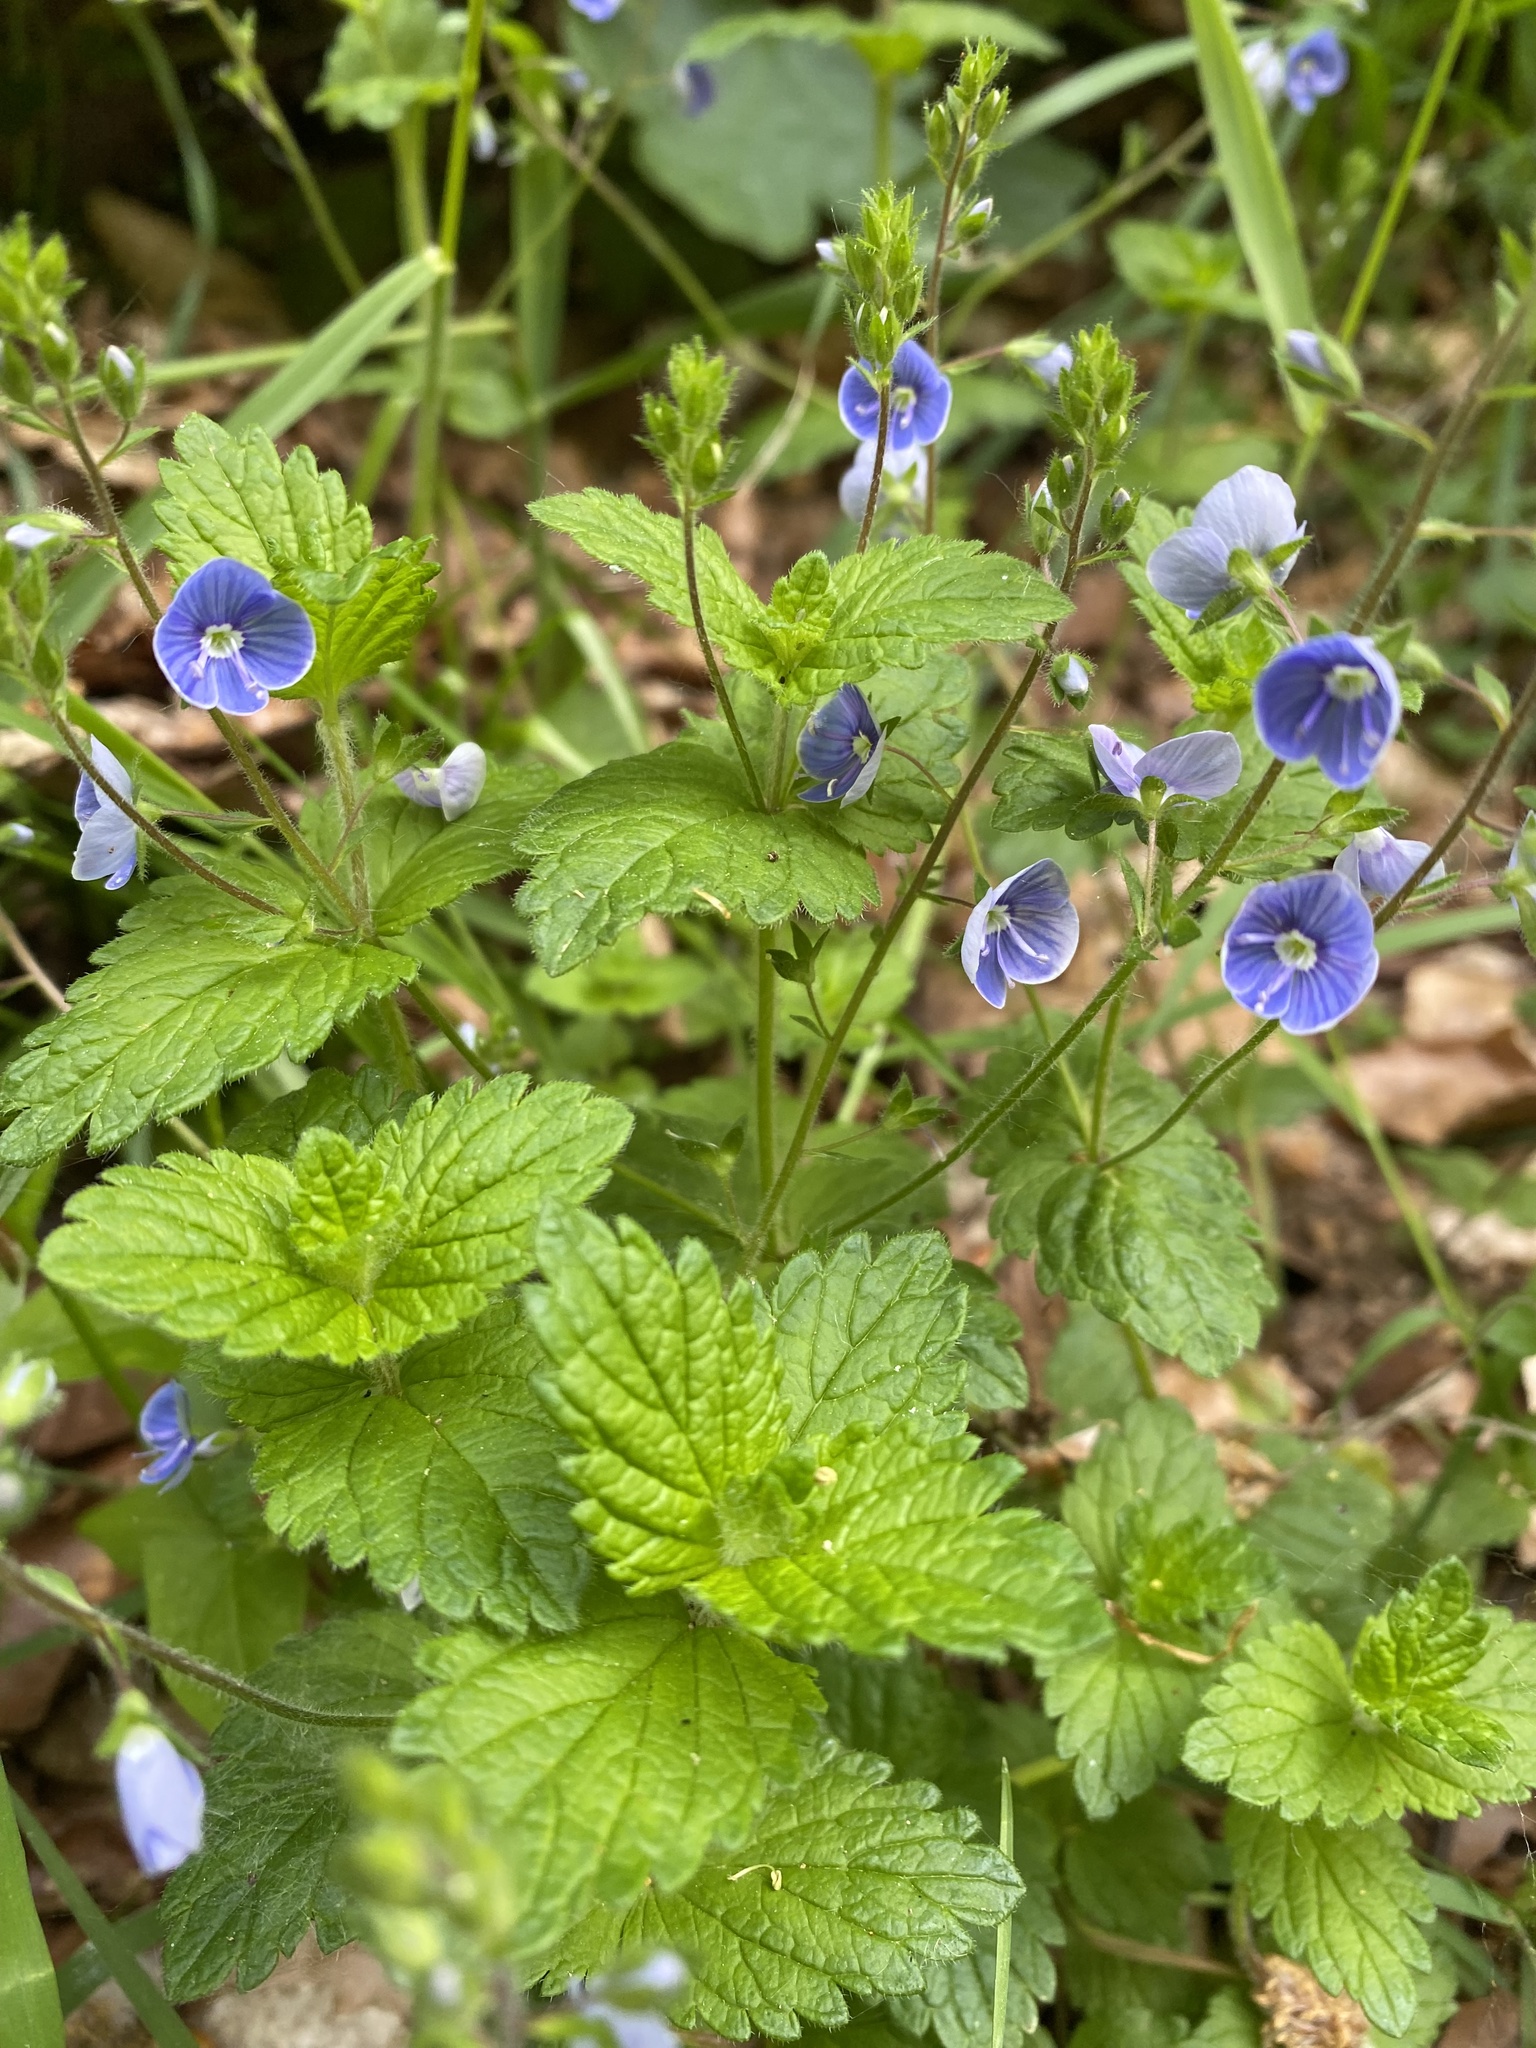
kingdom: Plantae
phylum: Tracheophyta
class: Magnoliopsida
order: Lamiales
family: Plantaginaceae
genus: Veronica
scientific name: Veronica chamaedrys
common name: Germander speedwell
